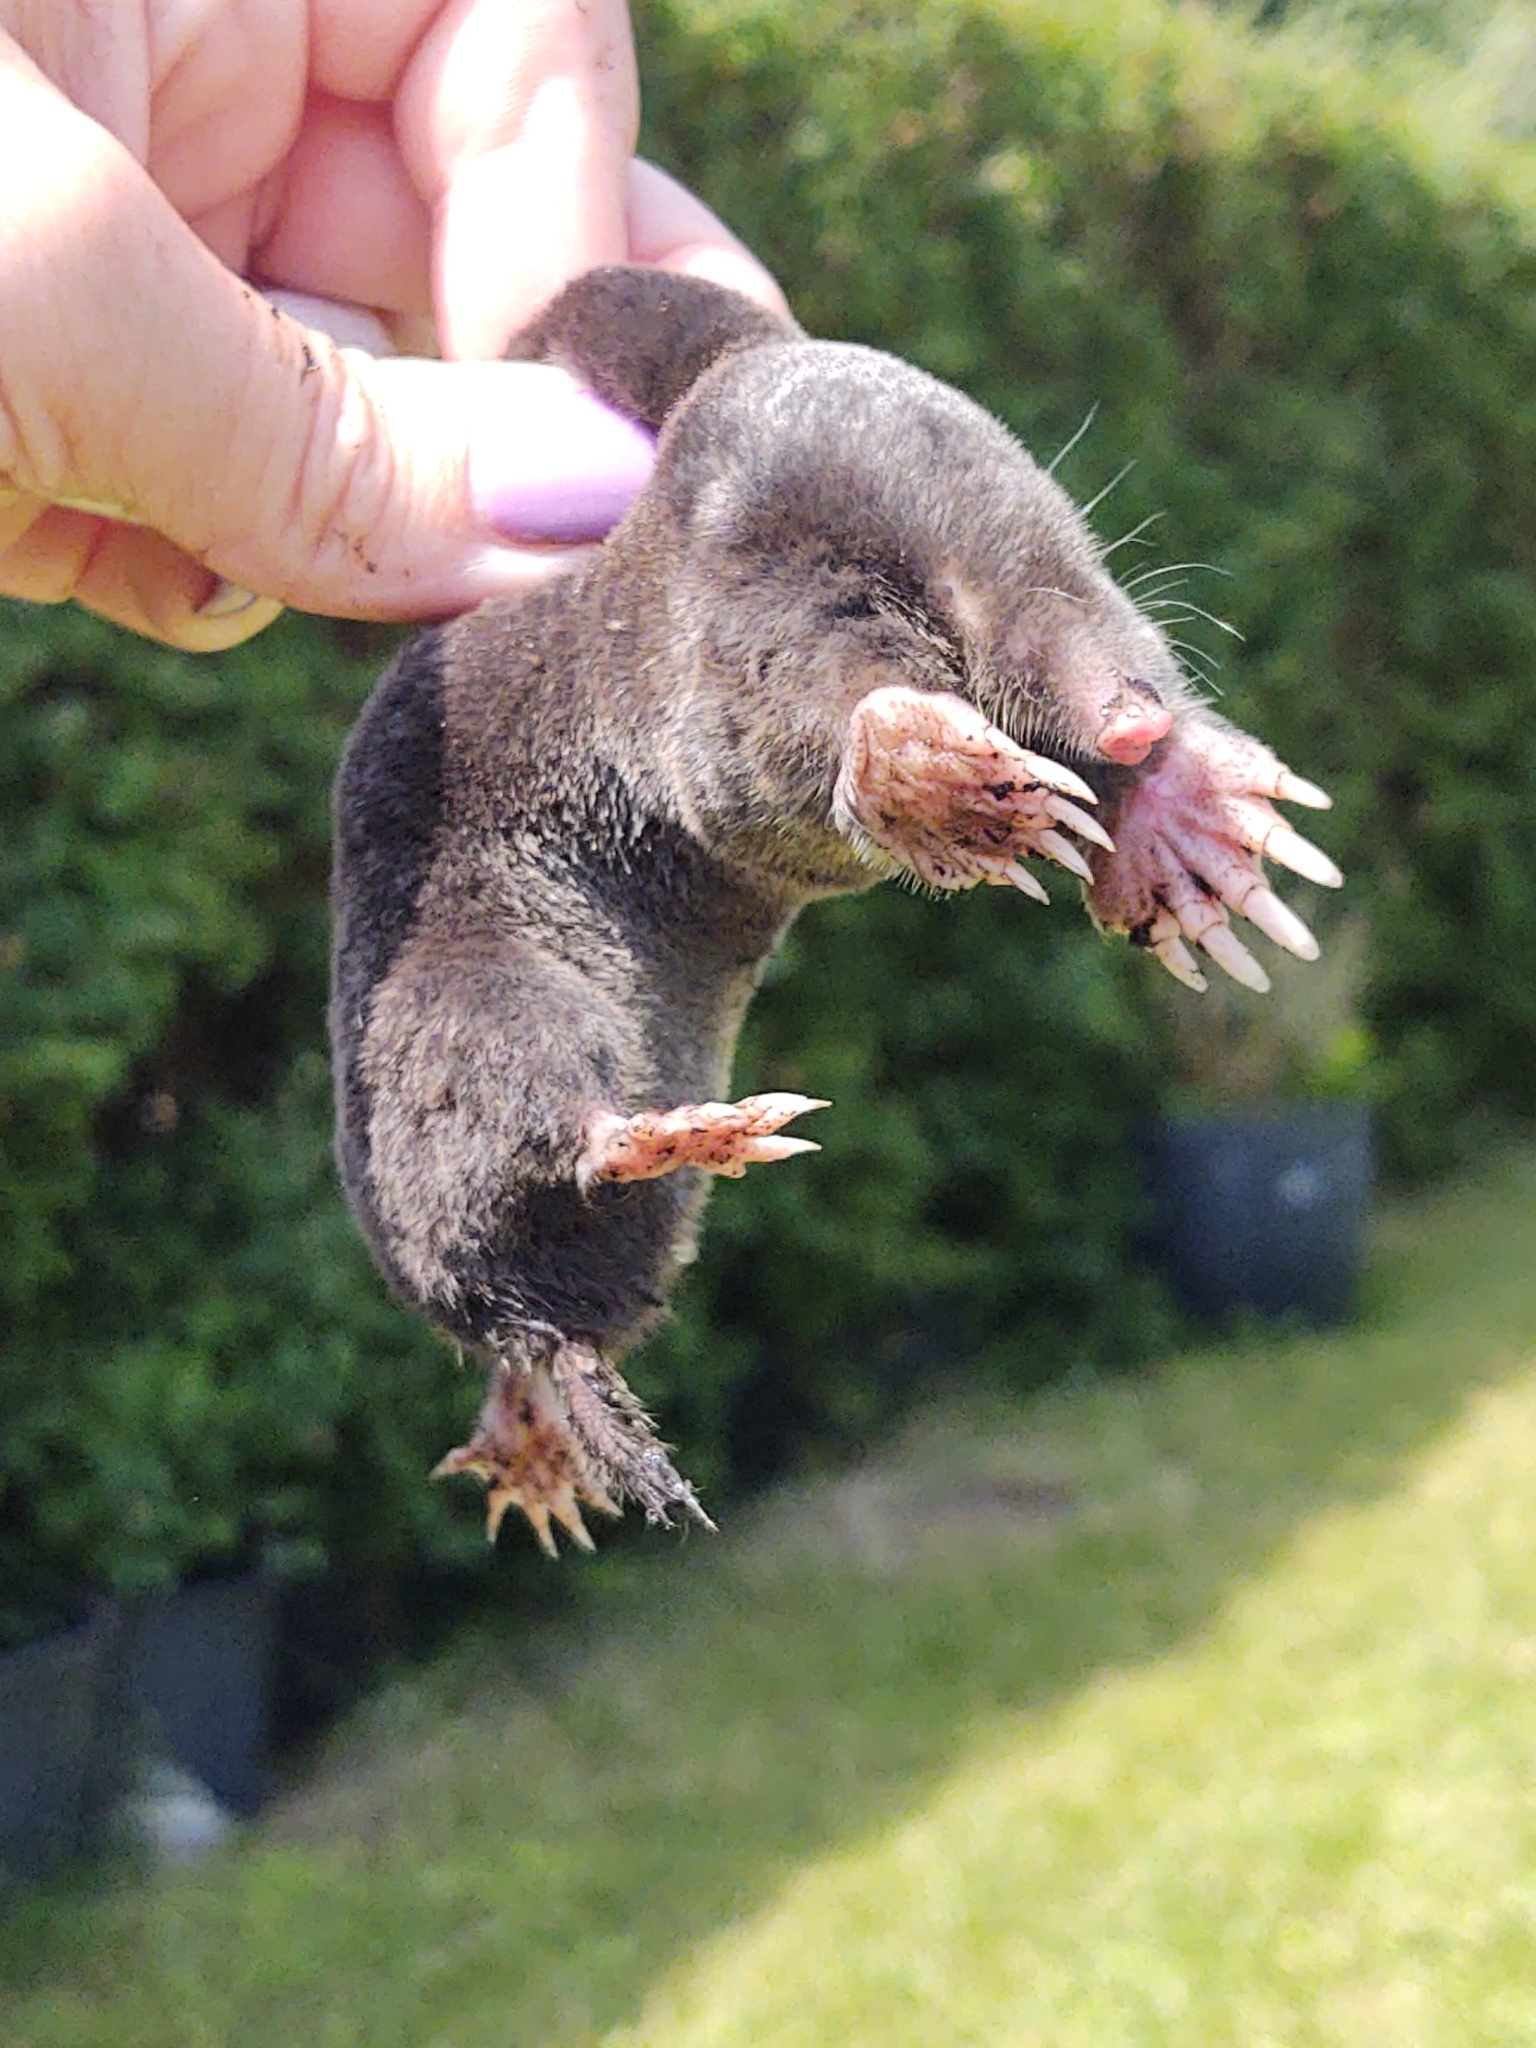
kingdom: Animalia
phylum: Chordata
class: Mammalia
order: Soricomorpha
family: Talpidae
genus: Talpa
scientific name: Talpa europaea
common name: European mole
